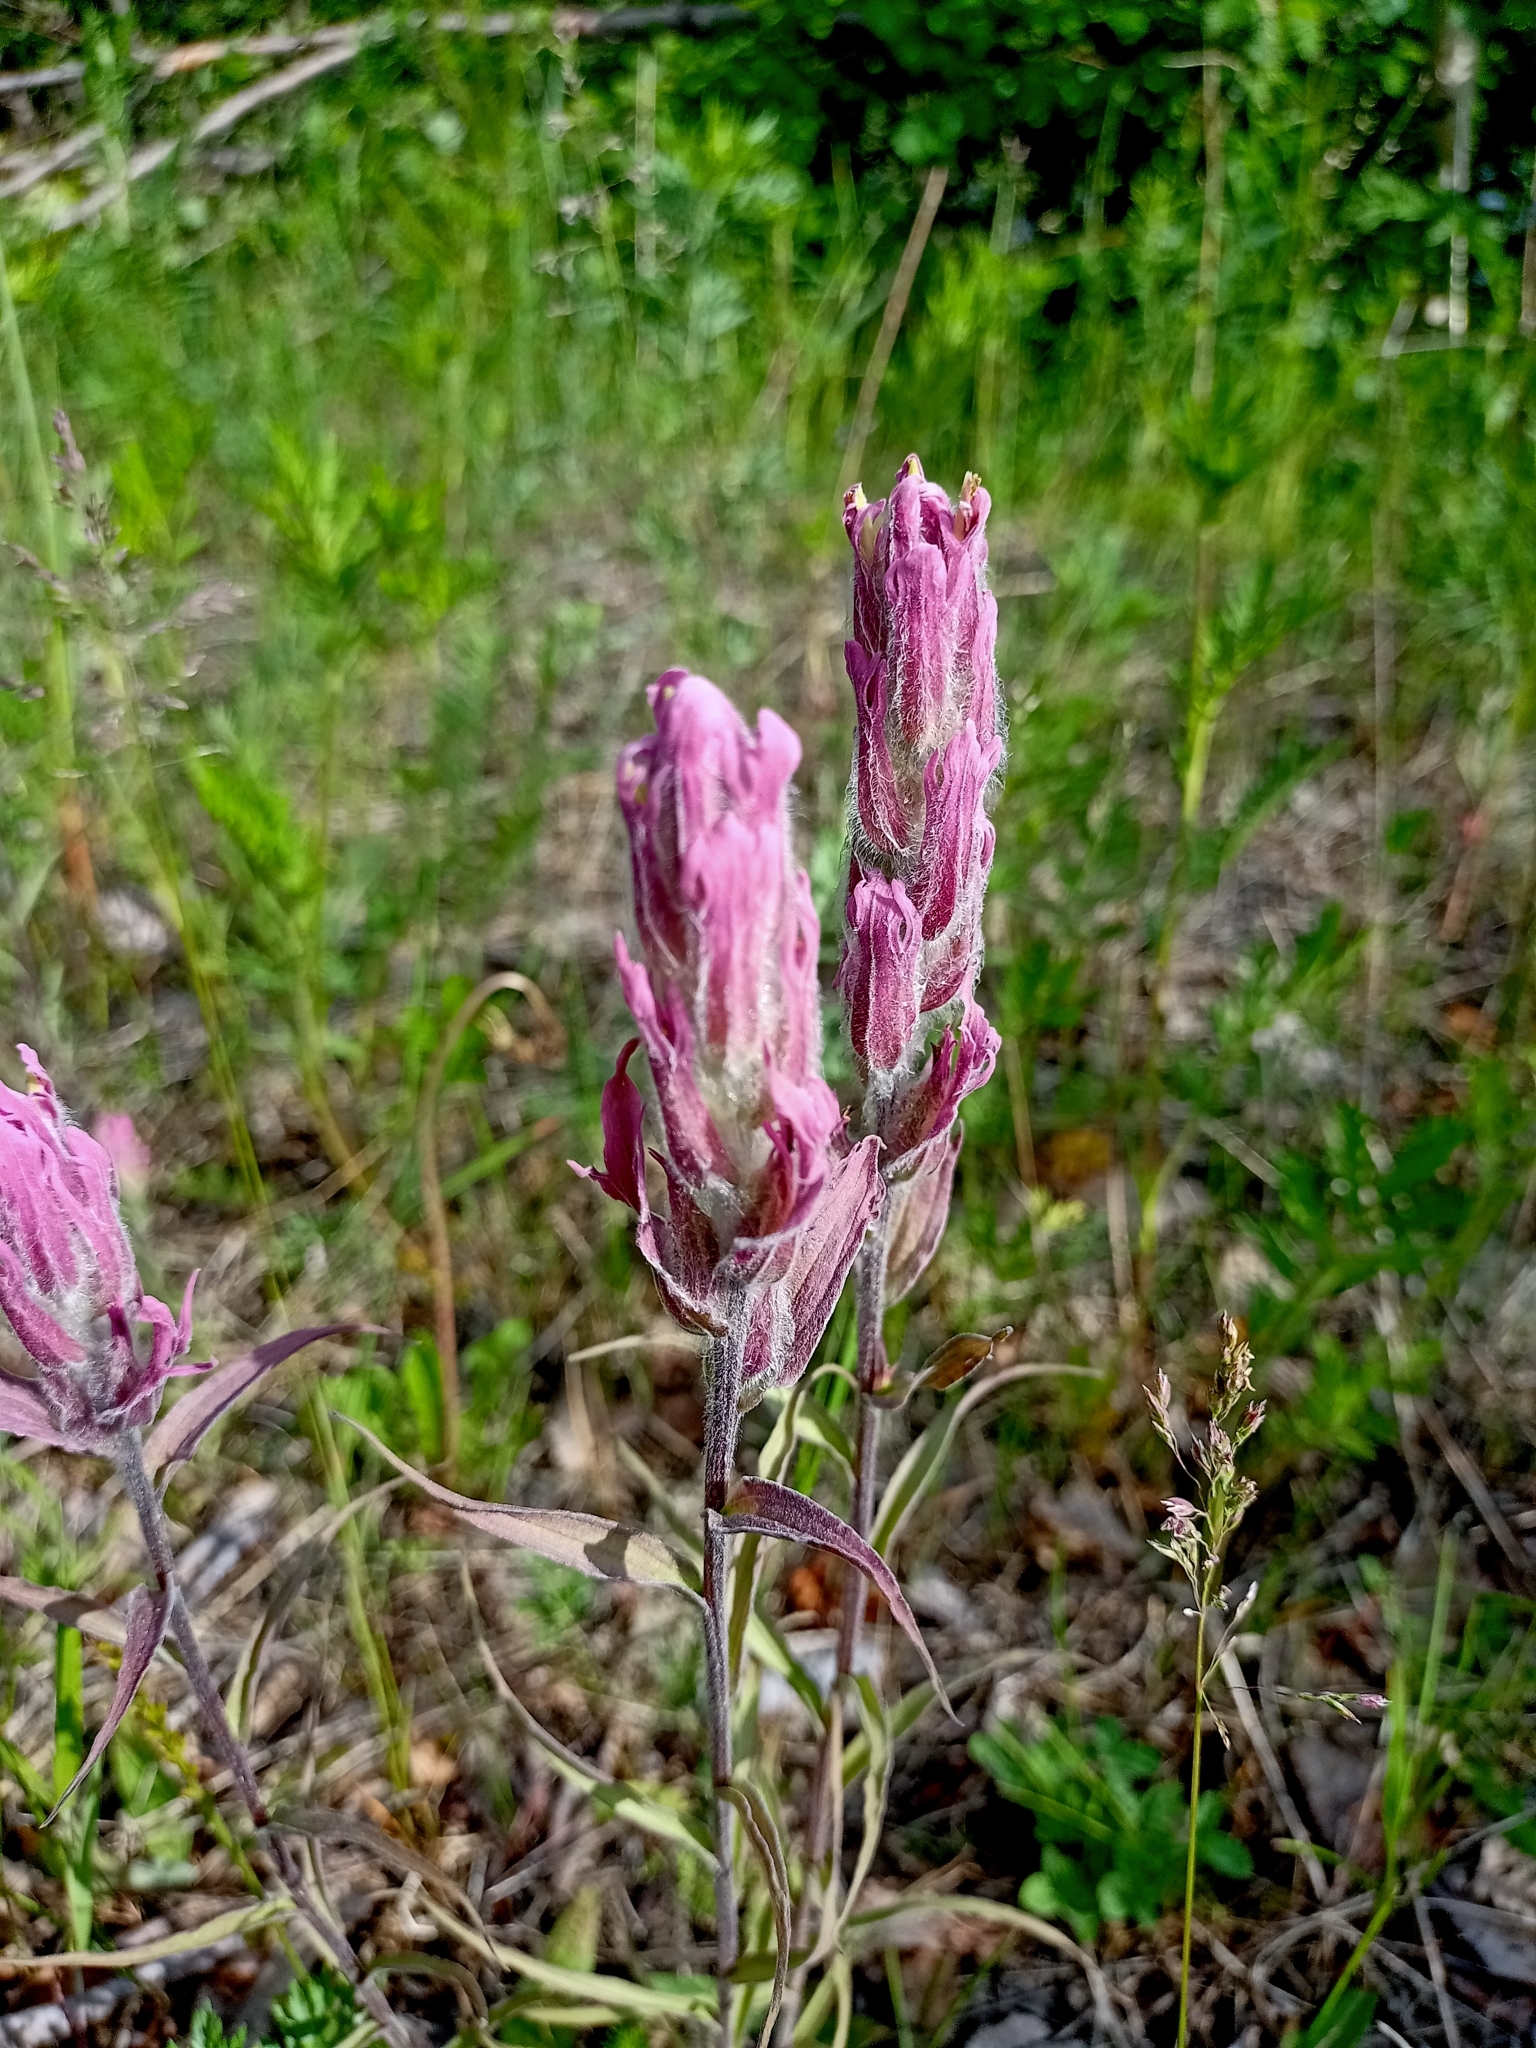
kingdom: Plantae
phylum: Tracheophyta
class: Magnoliopsida
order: Lamiales
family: Orobanchaceae
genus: Castilleja
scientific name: Castilleja rubra
